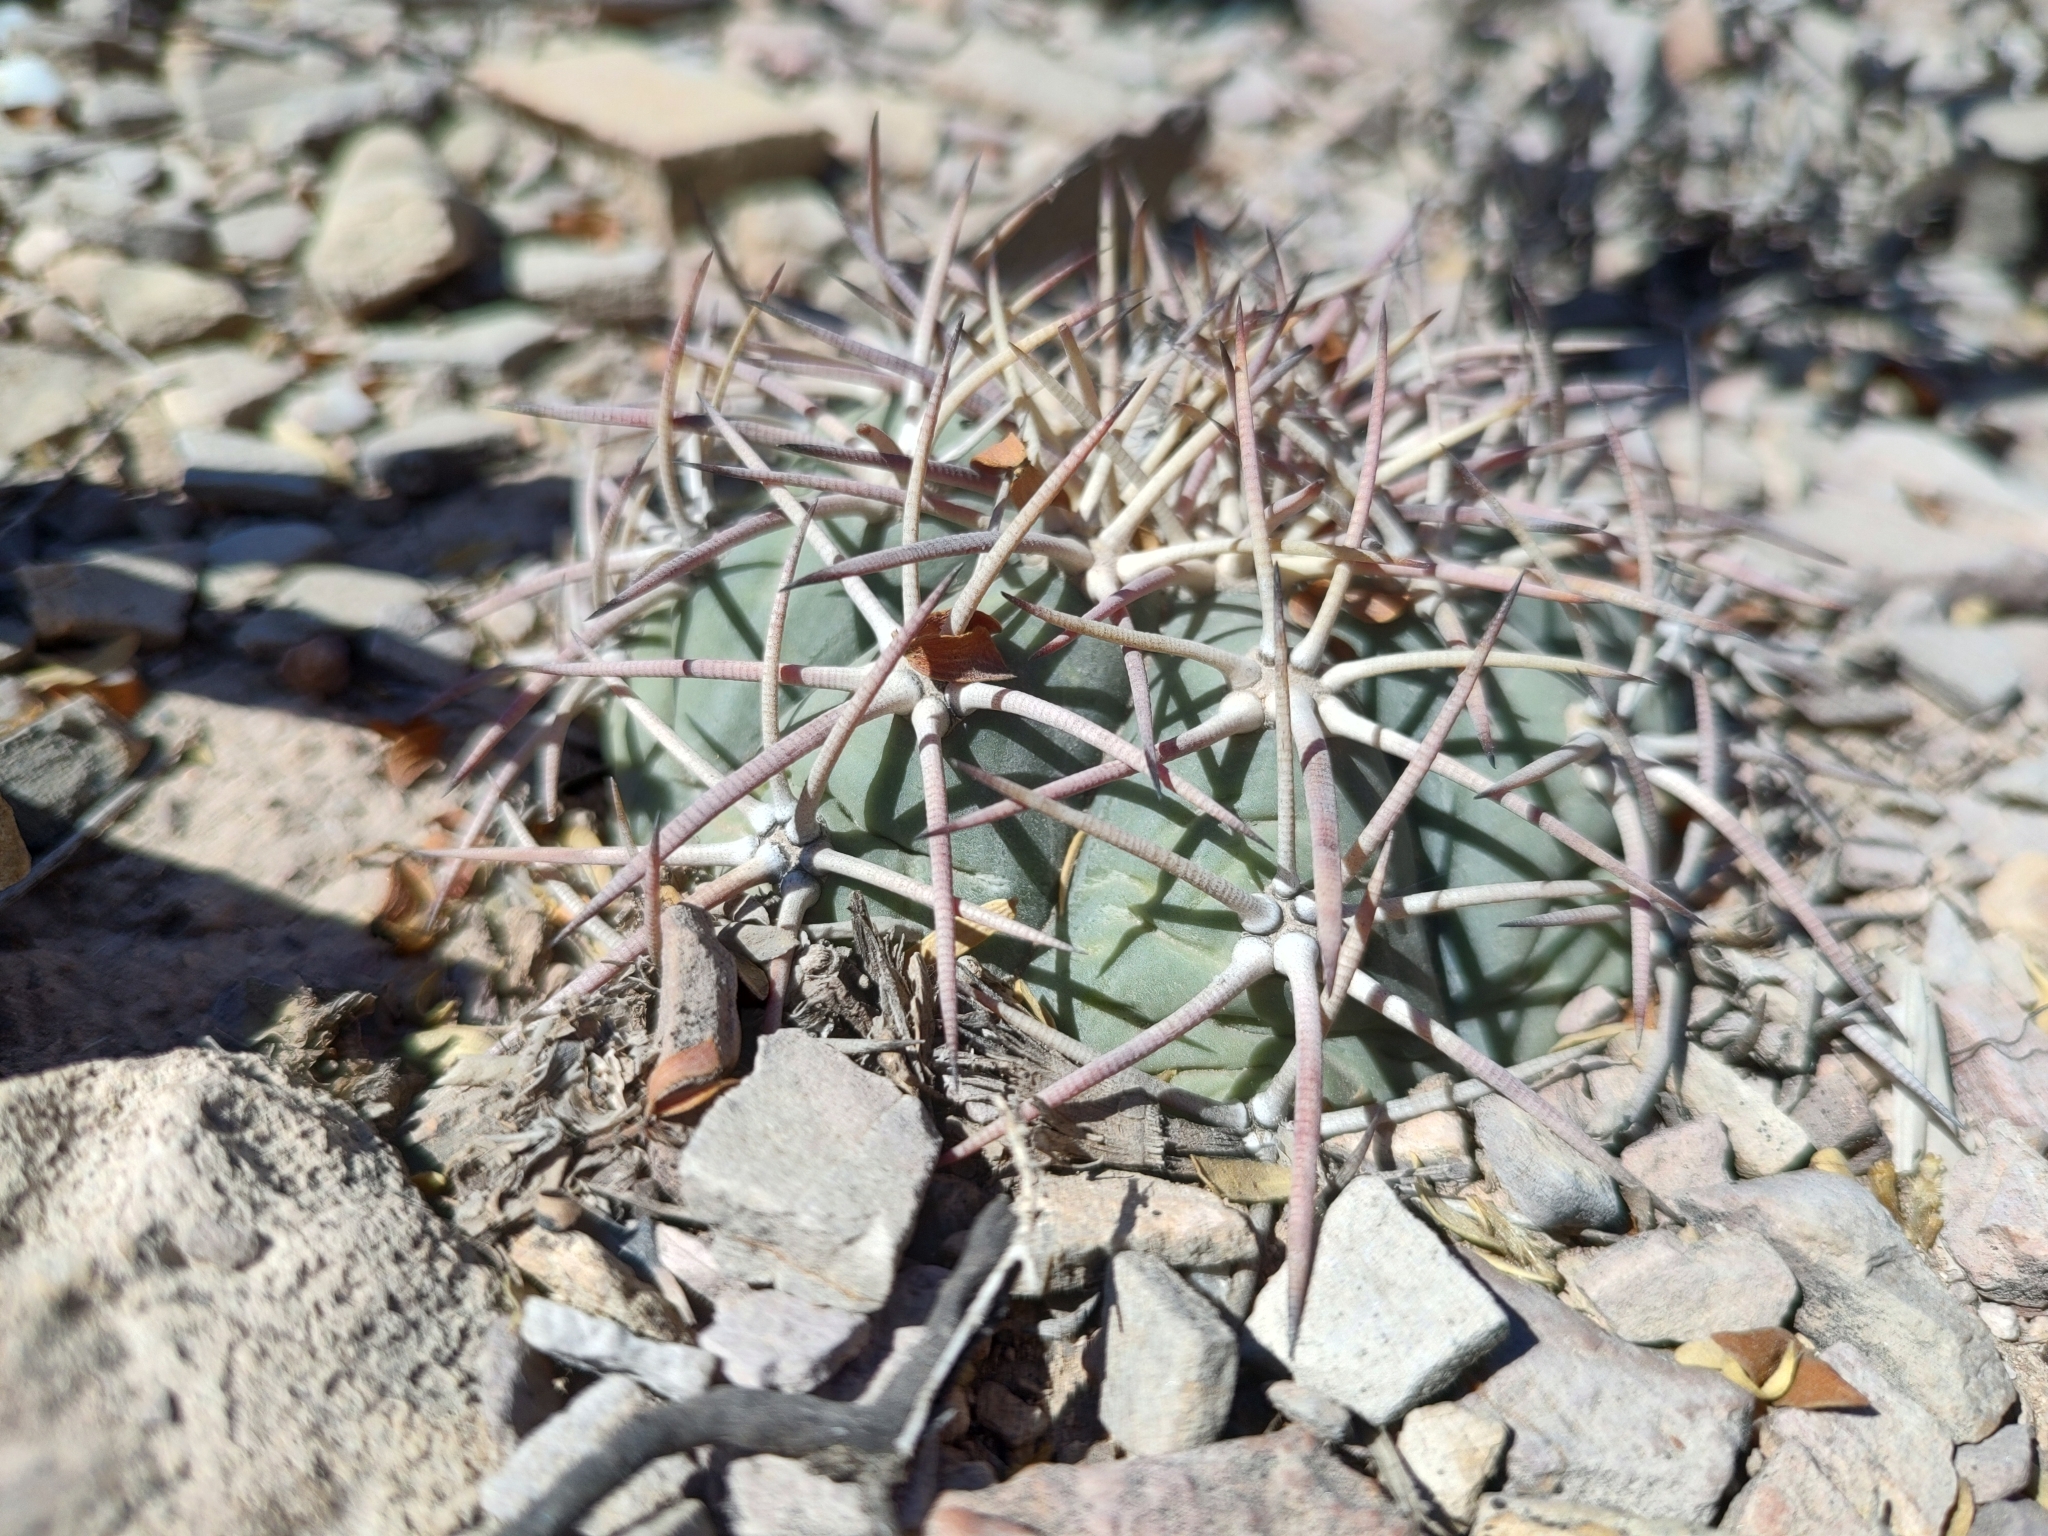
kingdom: Plantae
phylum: Tracheophyta
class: Magnoliopsida
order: Caryophyllales
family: Cactaceae
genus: Echinocactus
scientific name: Echinocactus horizonthalonius
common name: Devilshead
